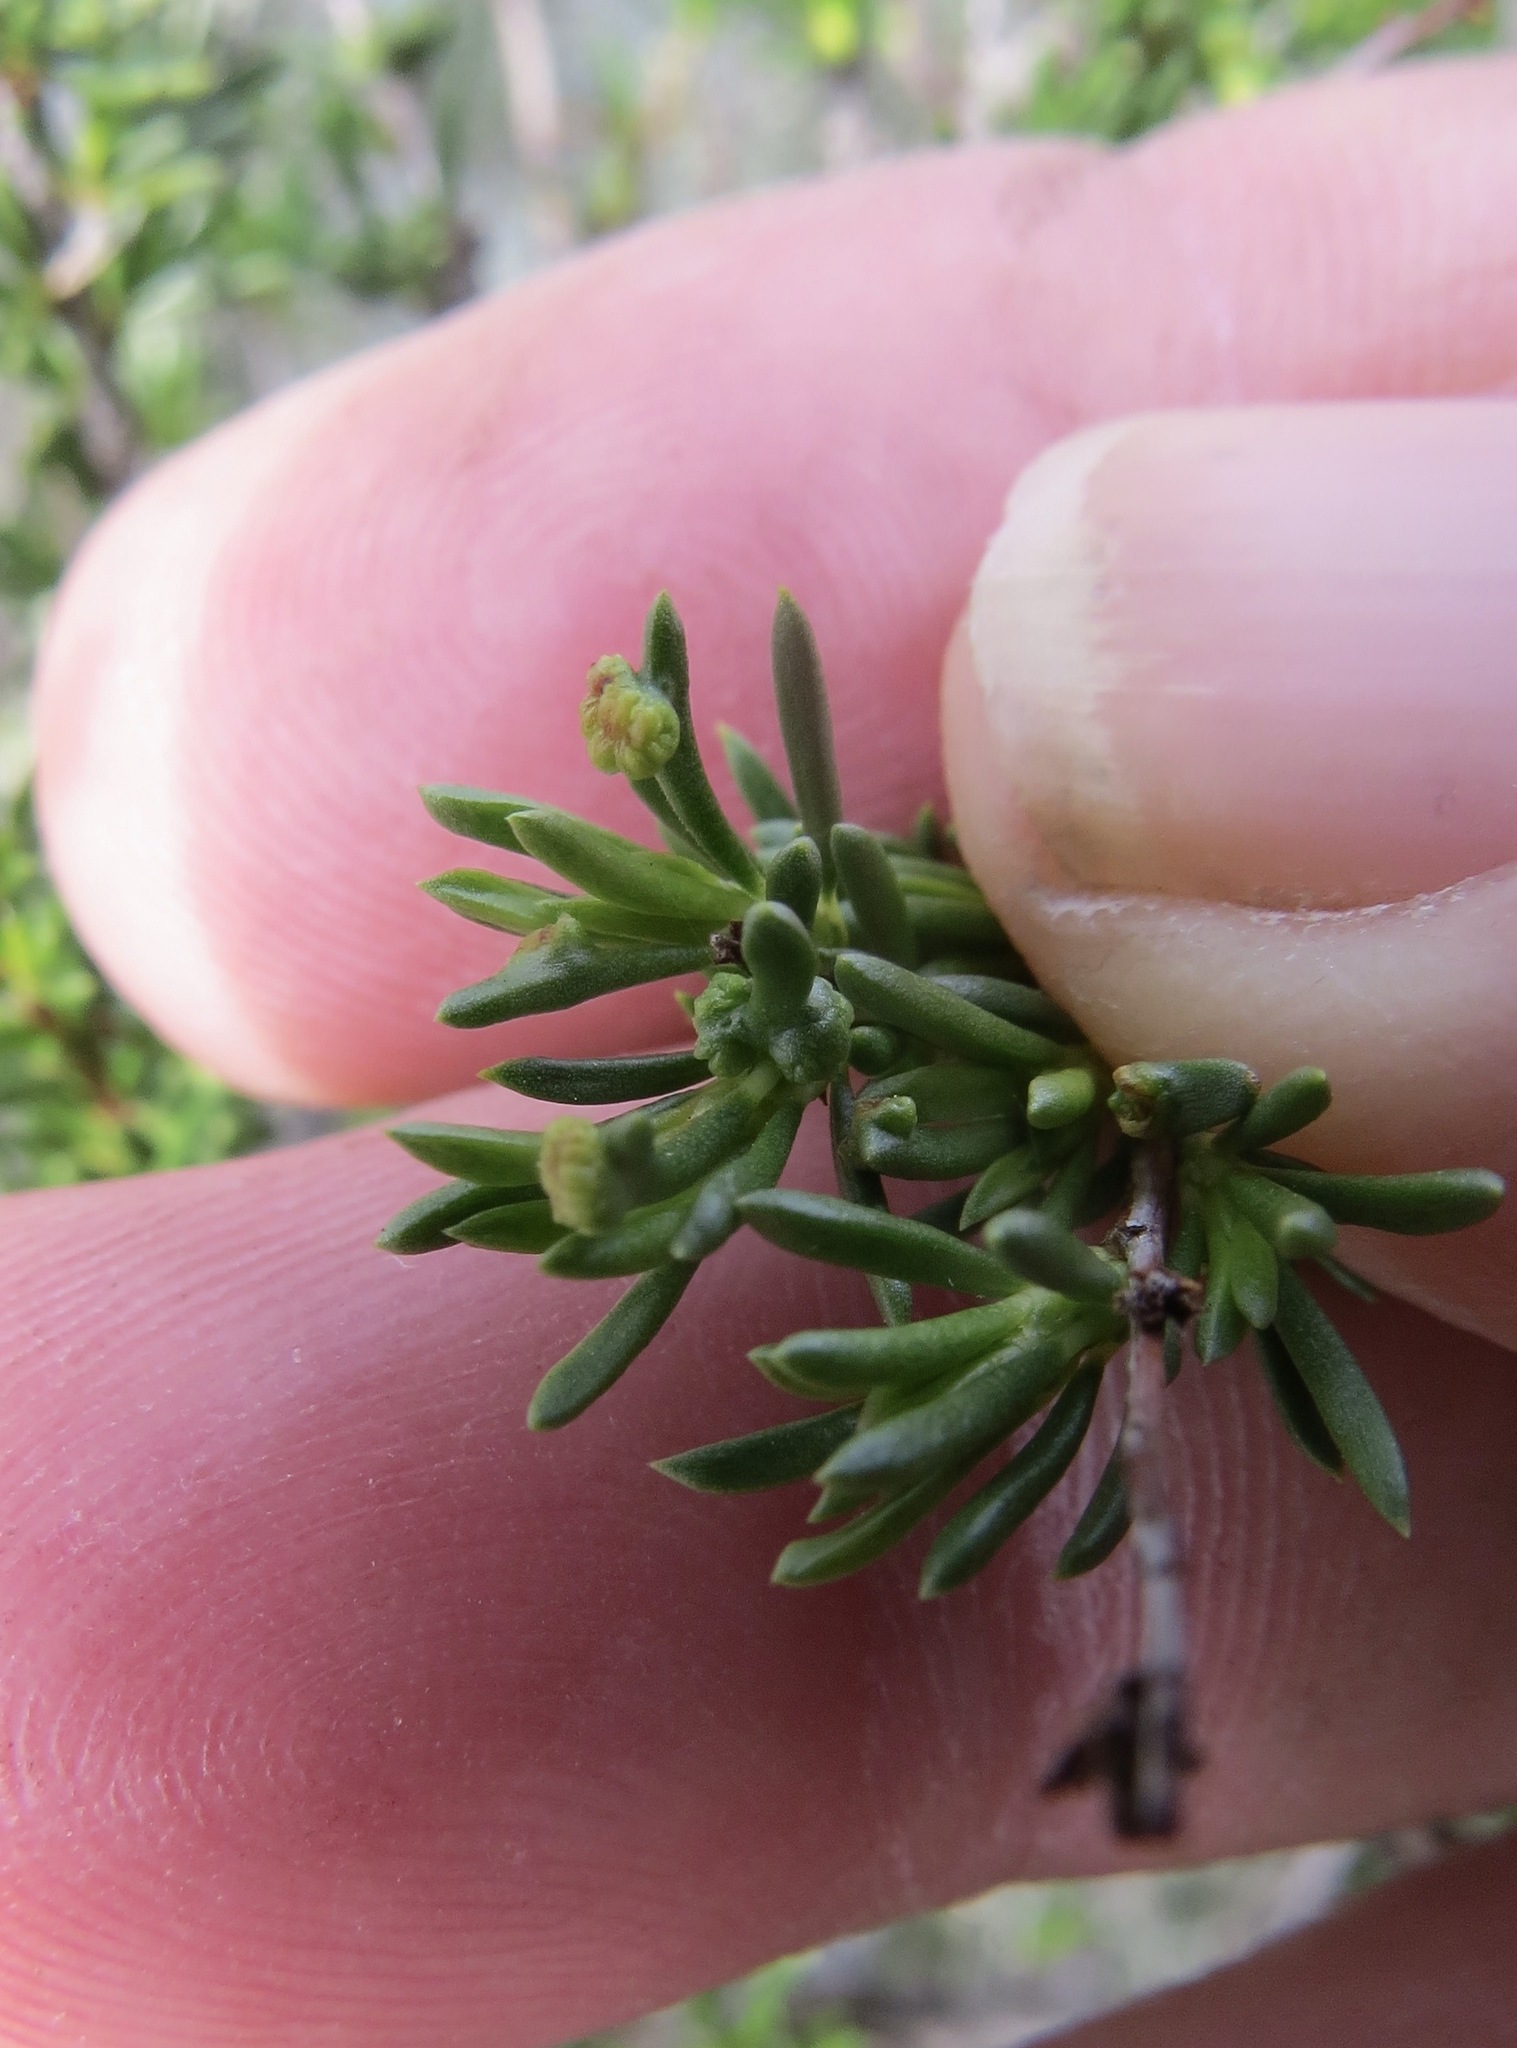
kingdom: Animalia
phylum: Arthropoda
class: Arachnida
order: Trombidiformes
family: Eriophyidae
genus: Eriophyes
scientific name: Eriophyes
